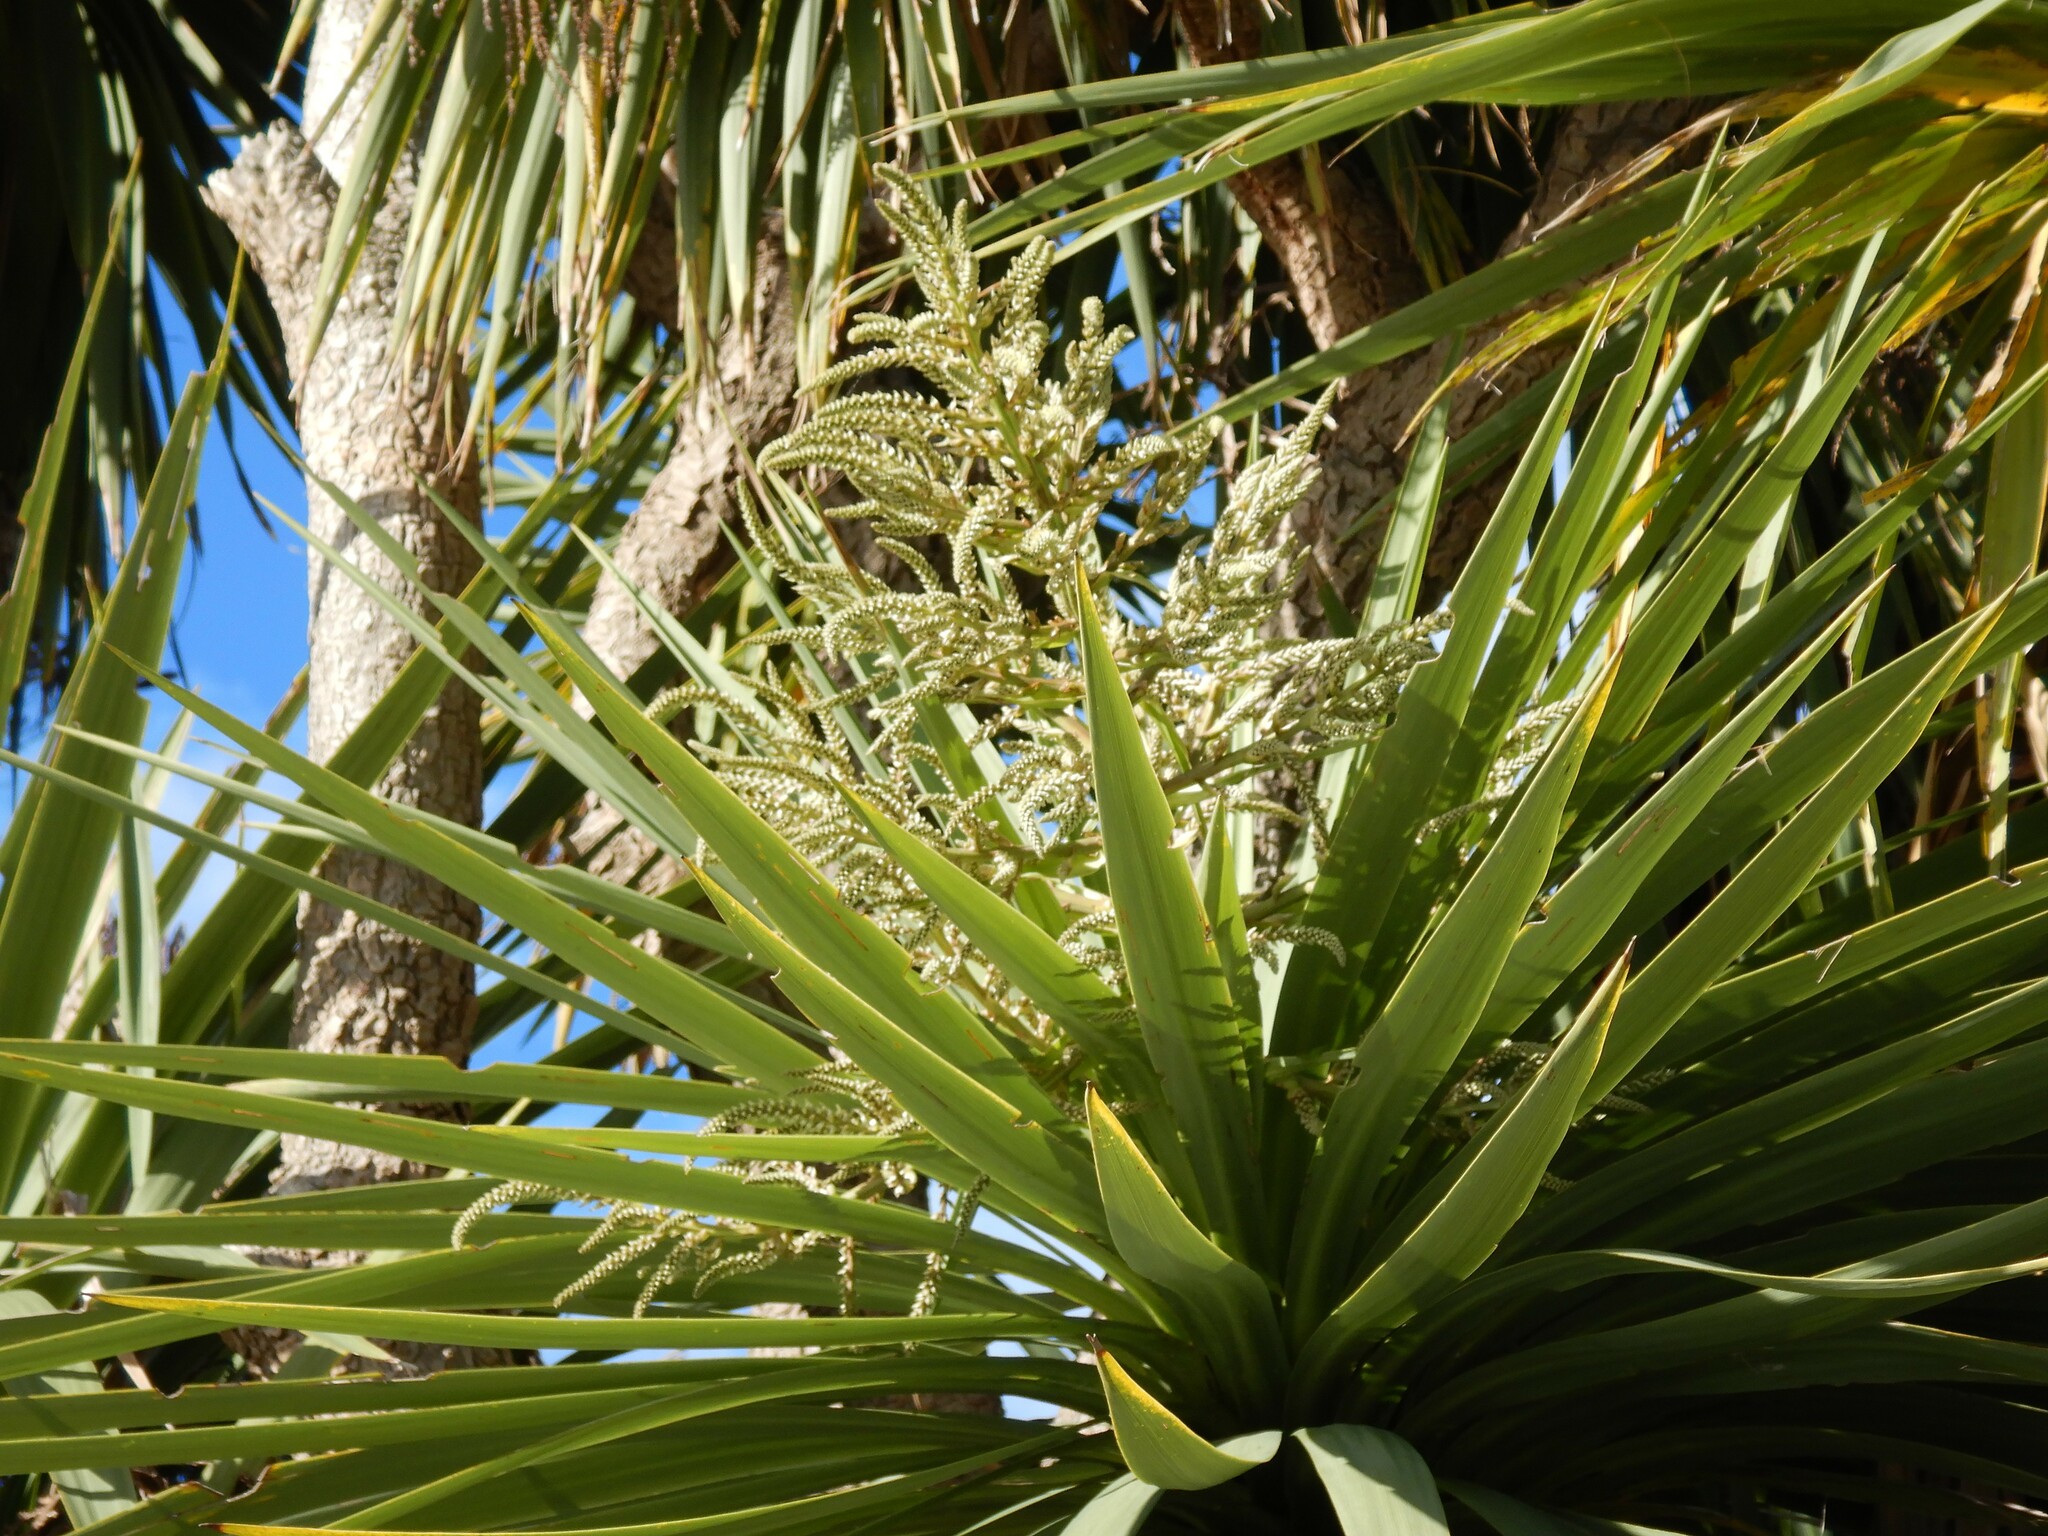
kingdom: Plantae
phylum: Tracheophyta
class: Liliopsida
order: Asparagales
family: Asparagaceae
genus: Cordyline
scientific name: Cordyline australis
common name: Cabbage-palm
